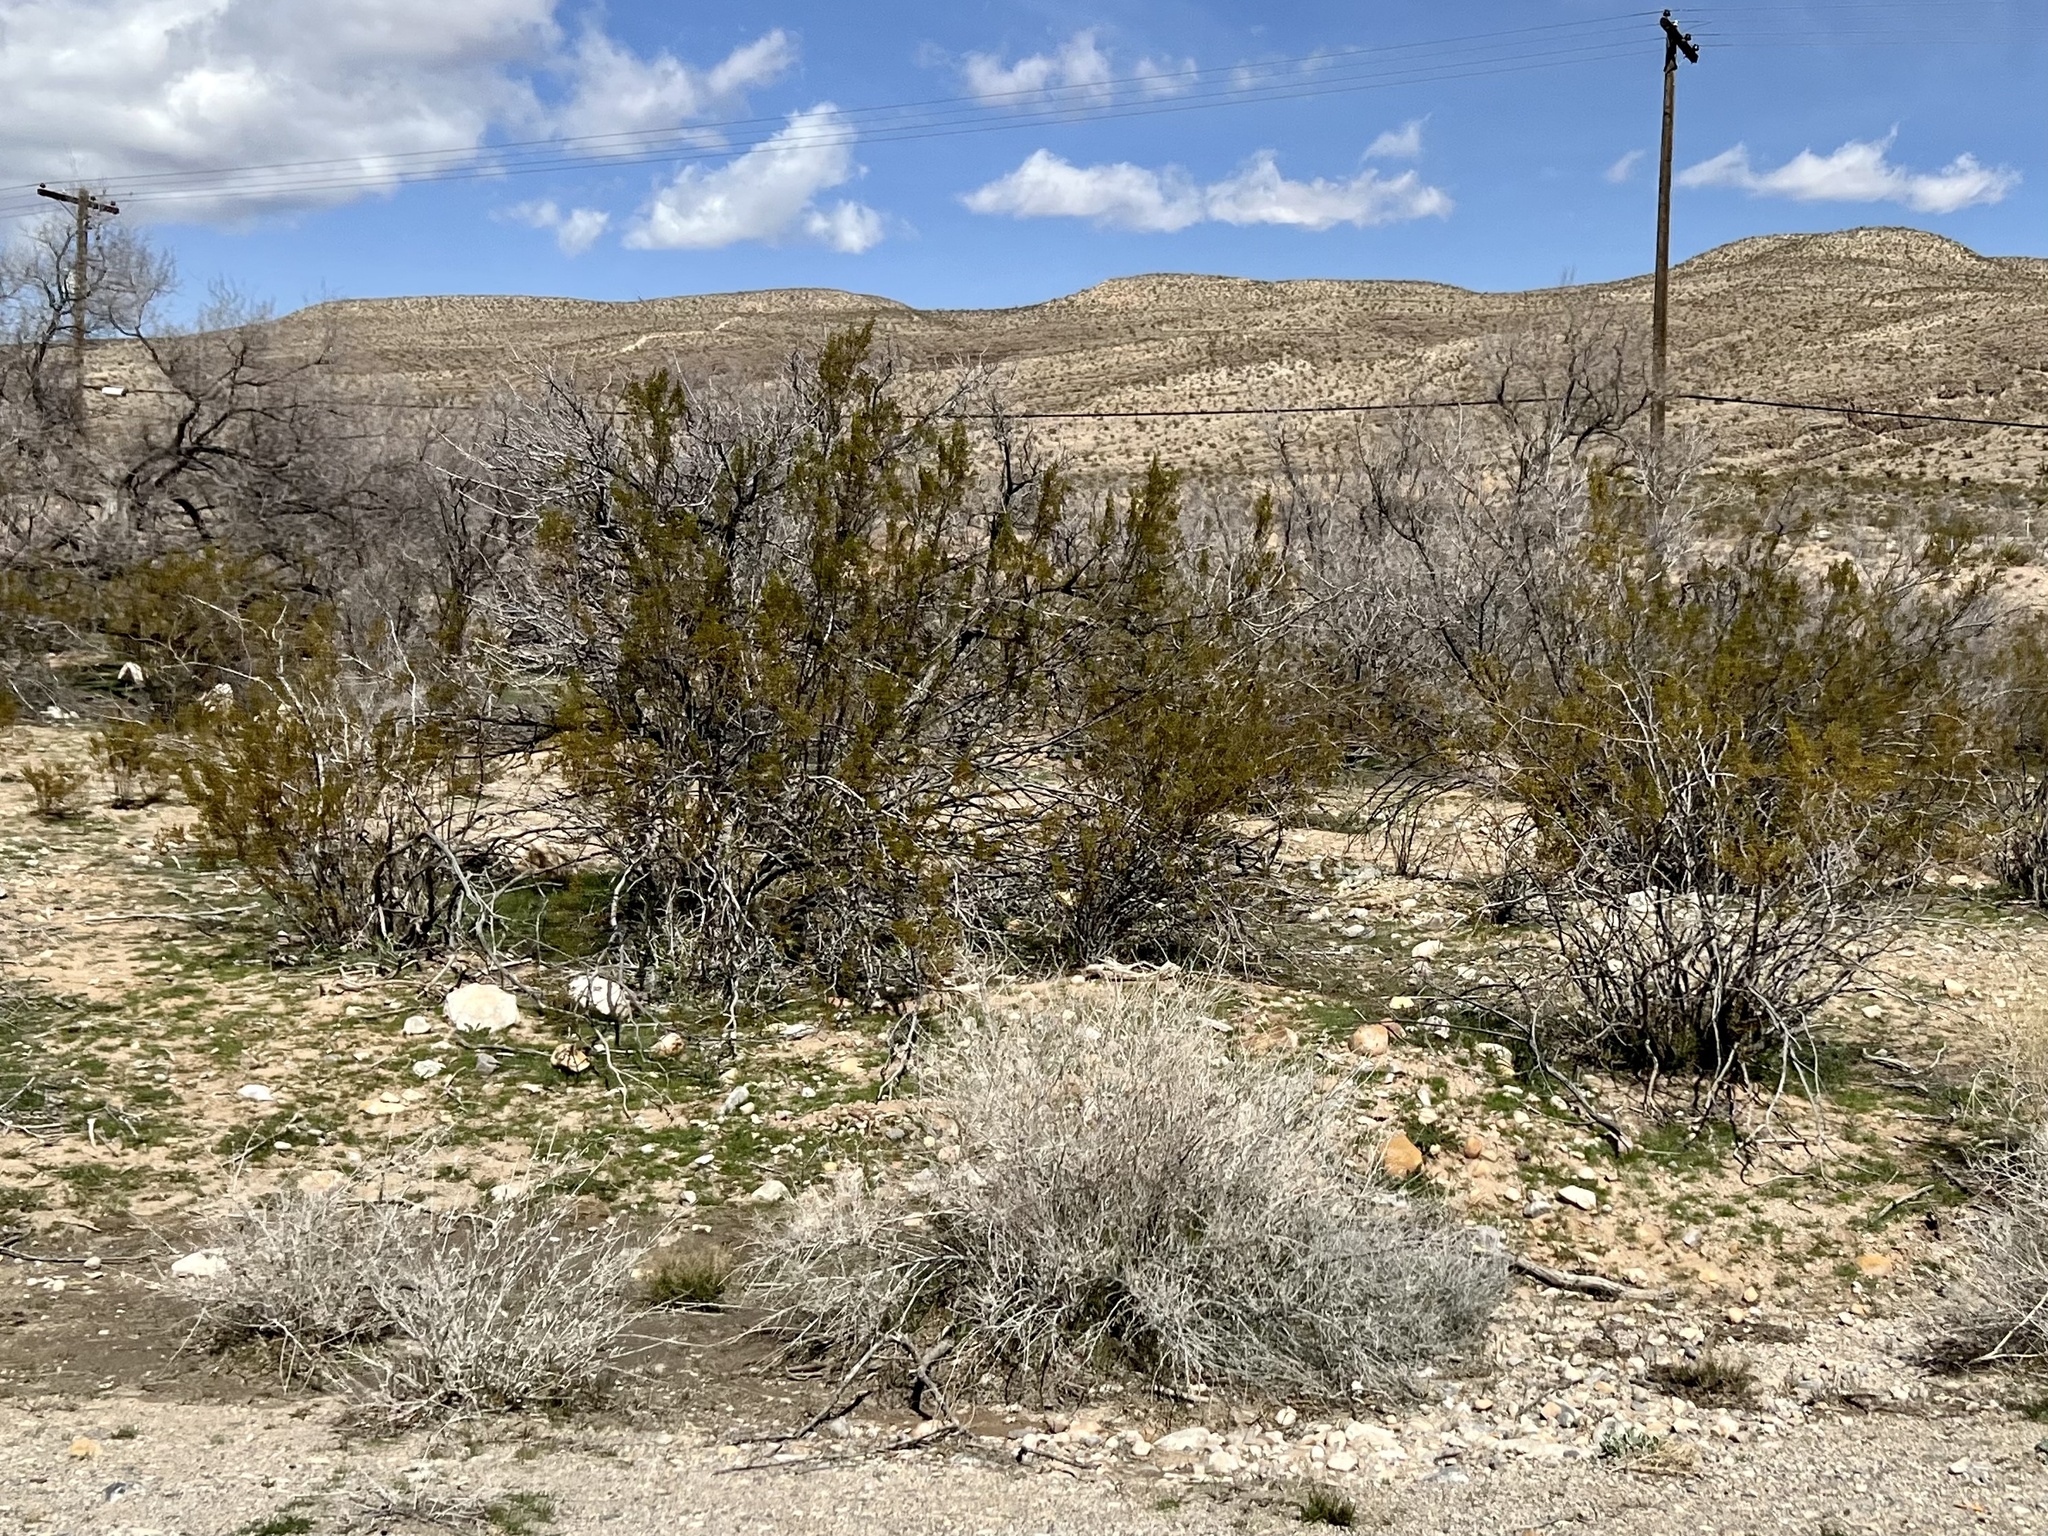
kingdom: Plantae
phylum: Tracheophyta
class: Magnoliopsida
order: Zygophyllales
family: Zygophyllaceae
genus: Larrea
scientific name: Larrea tridentata
